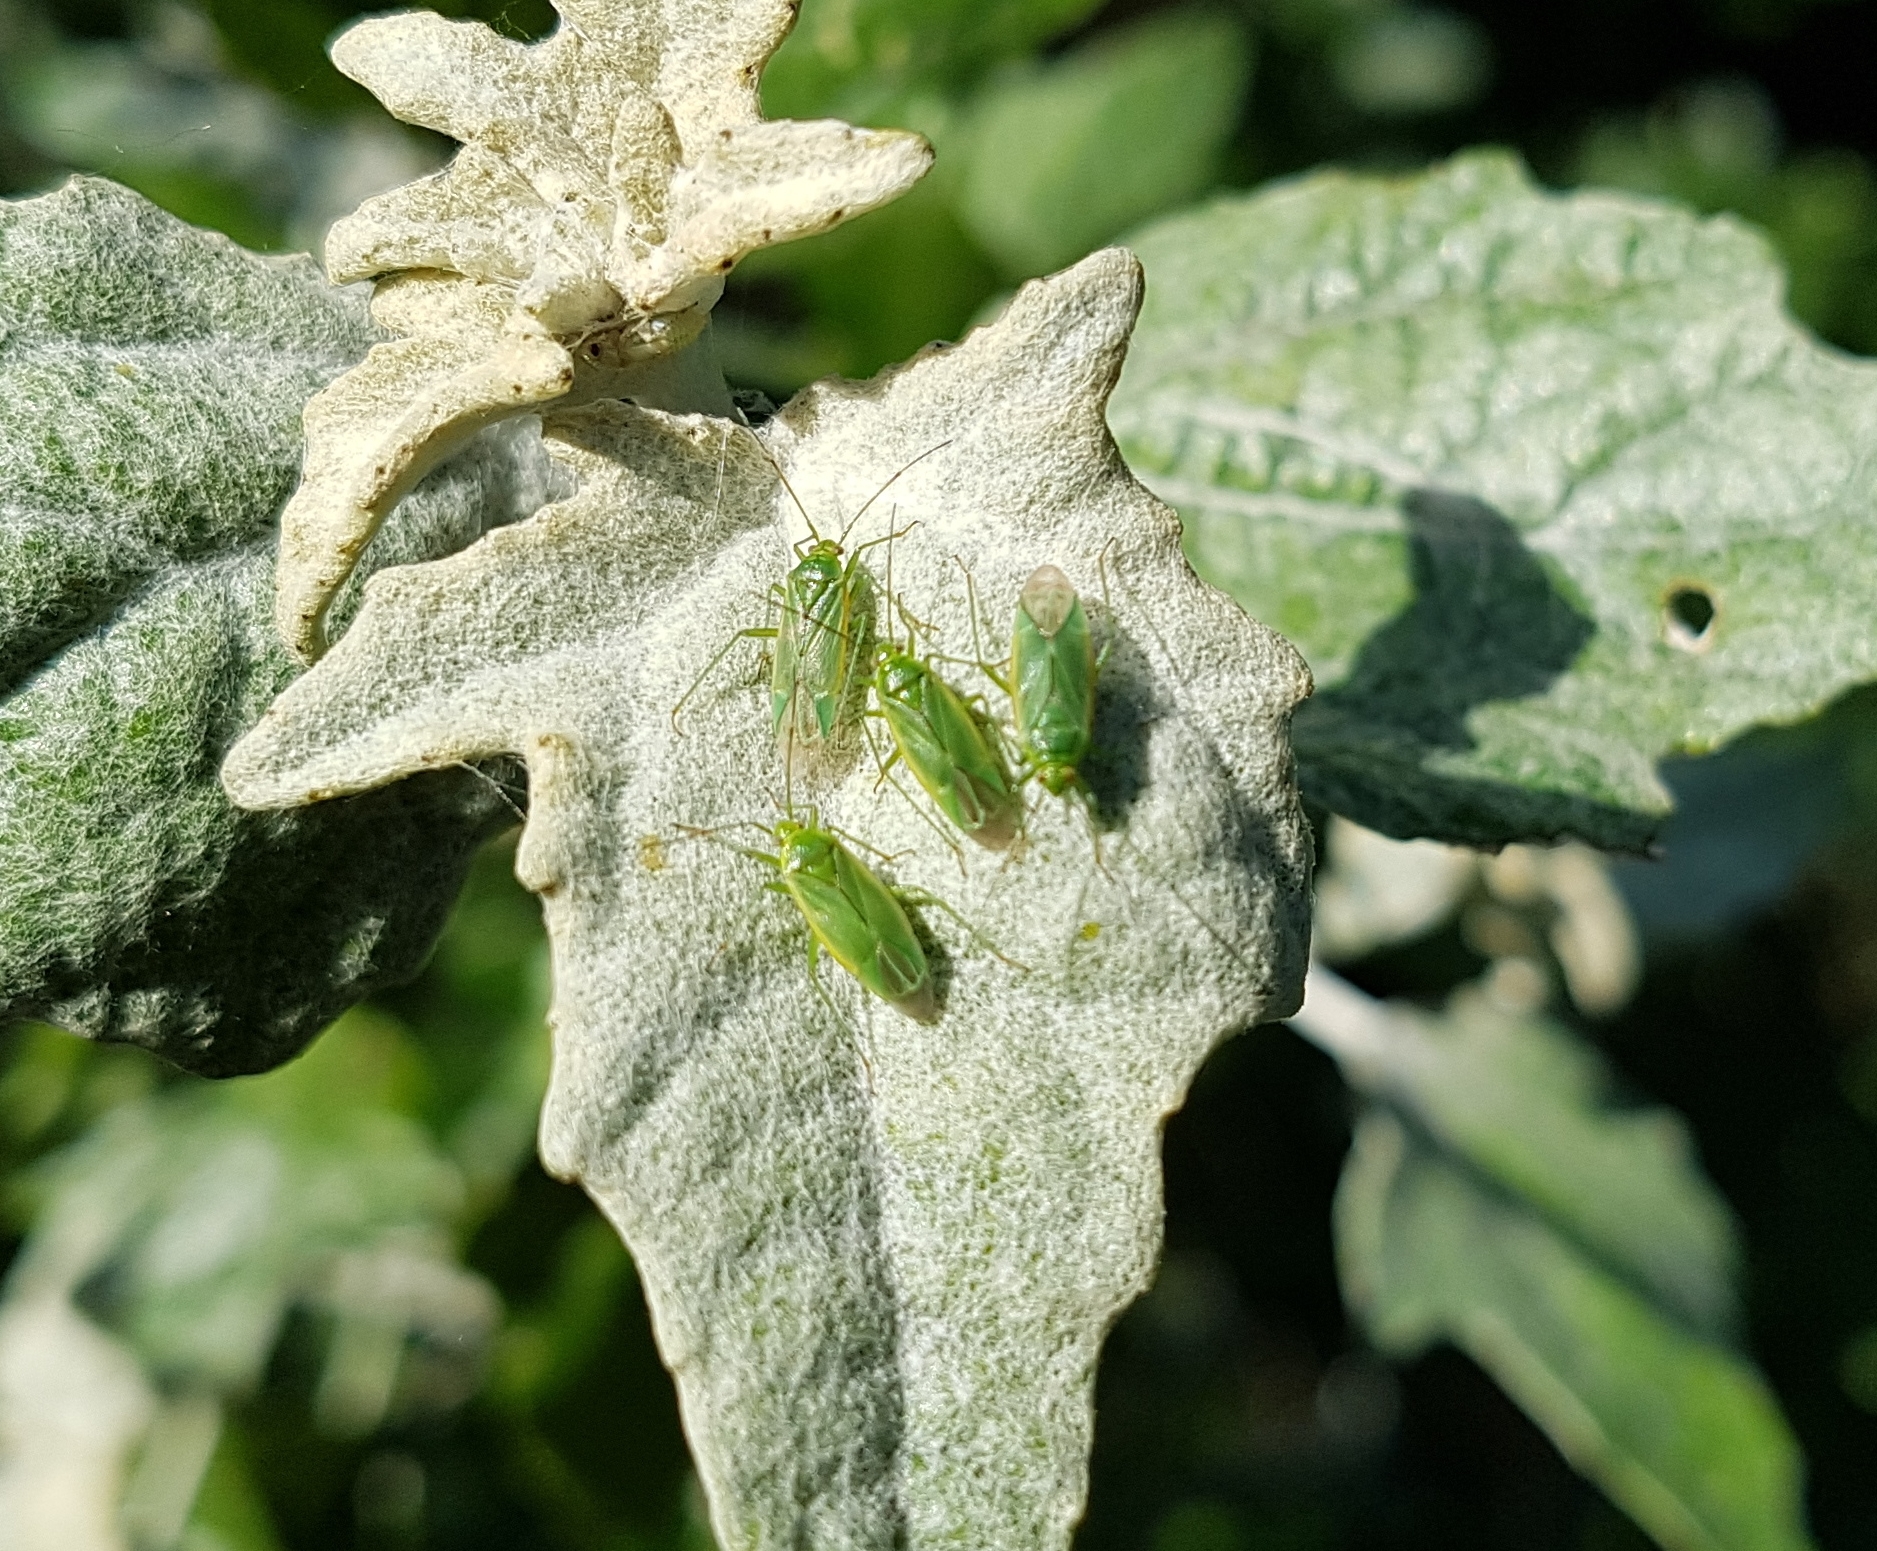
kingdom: Animalia
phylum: Arthropoda
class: Insecta
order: Hemiptera
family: Miridae
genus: Lygocoris
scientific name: Lygocoris rugicollis
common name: Apple capsid
